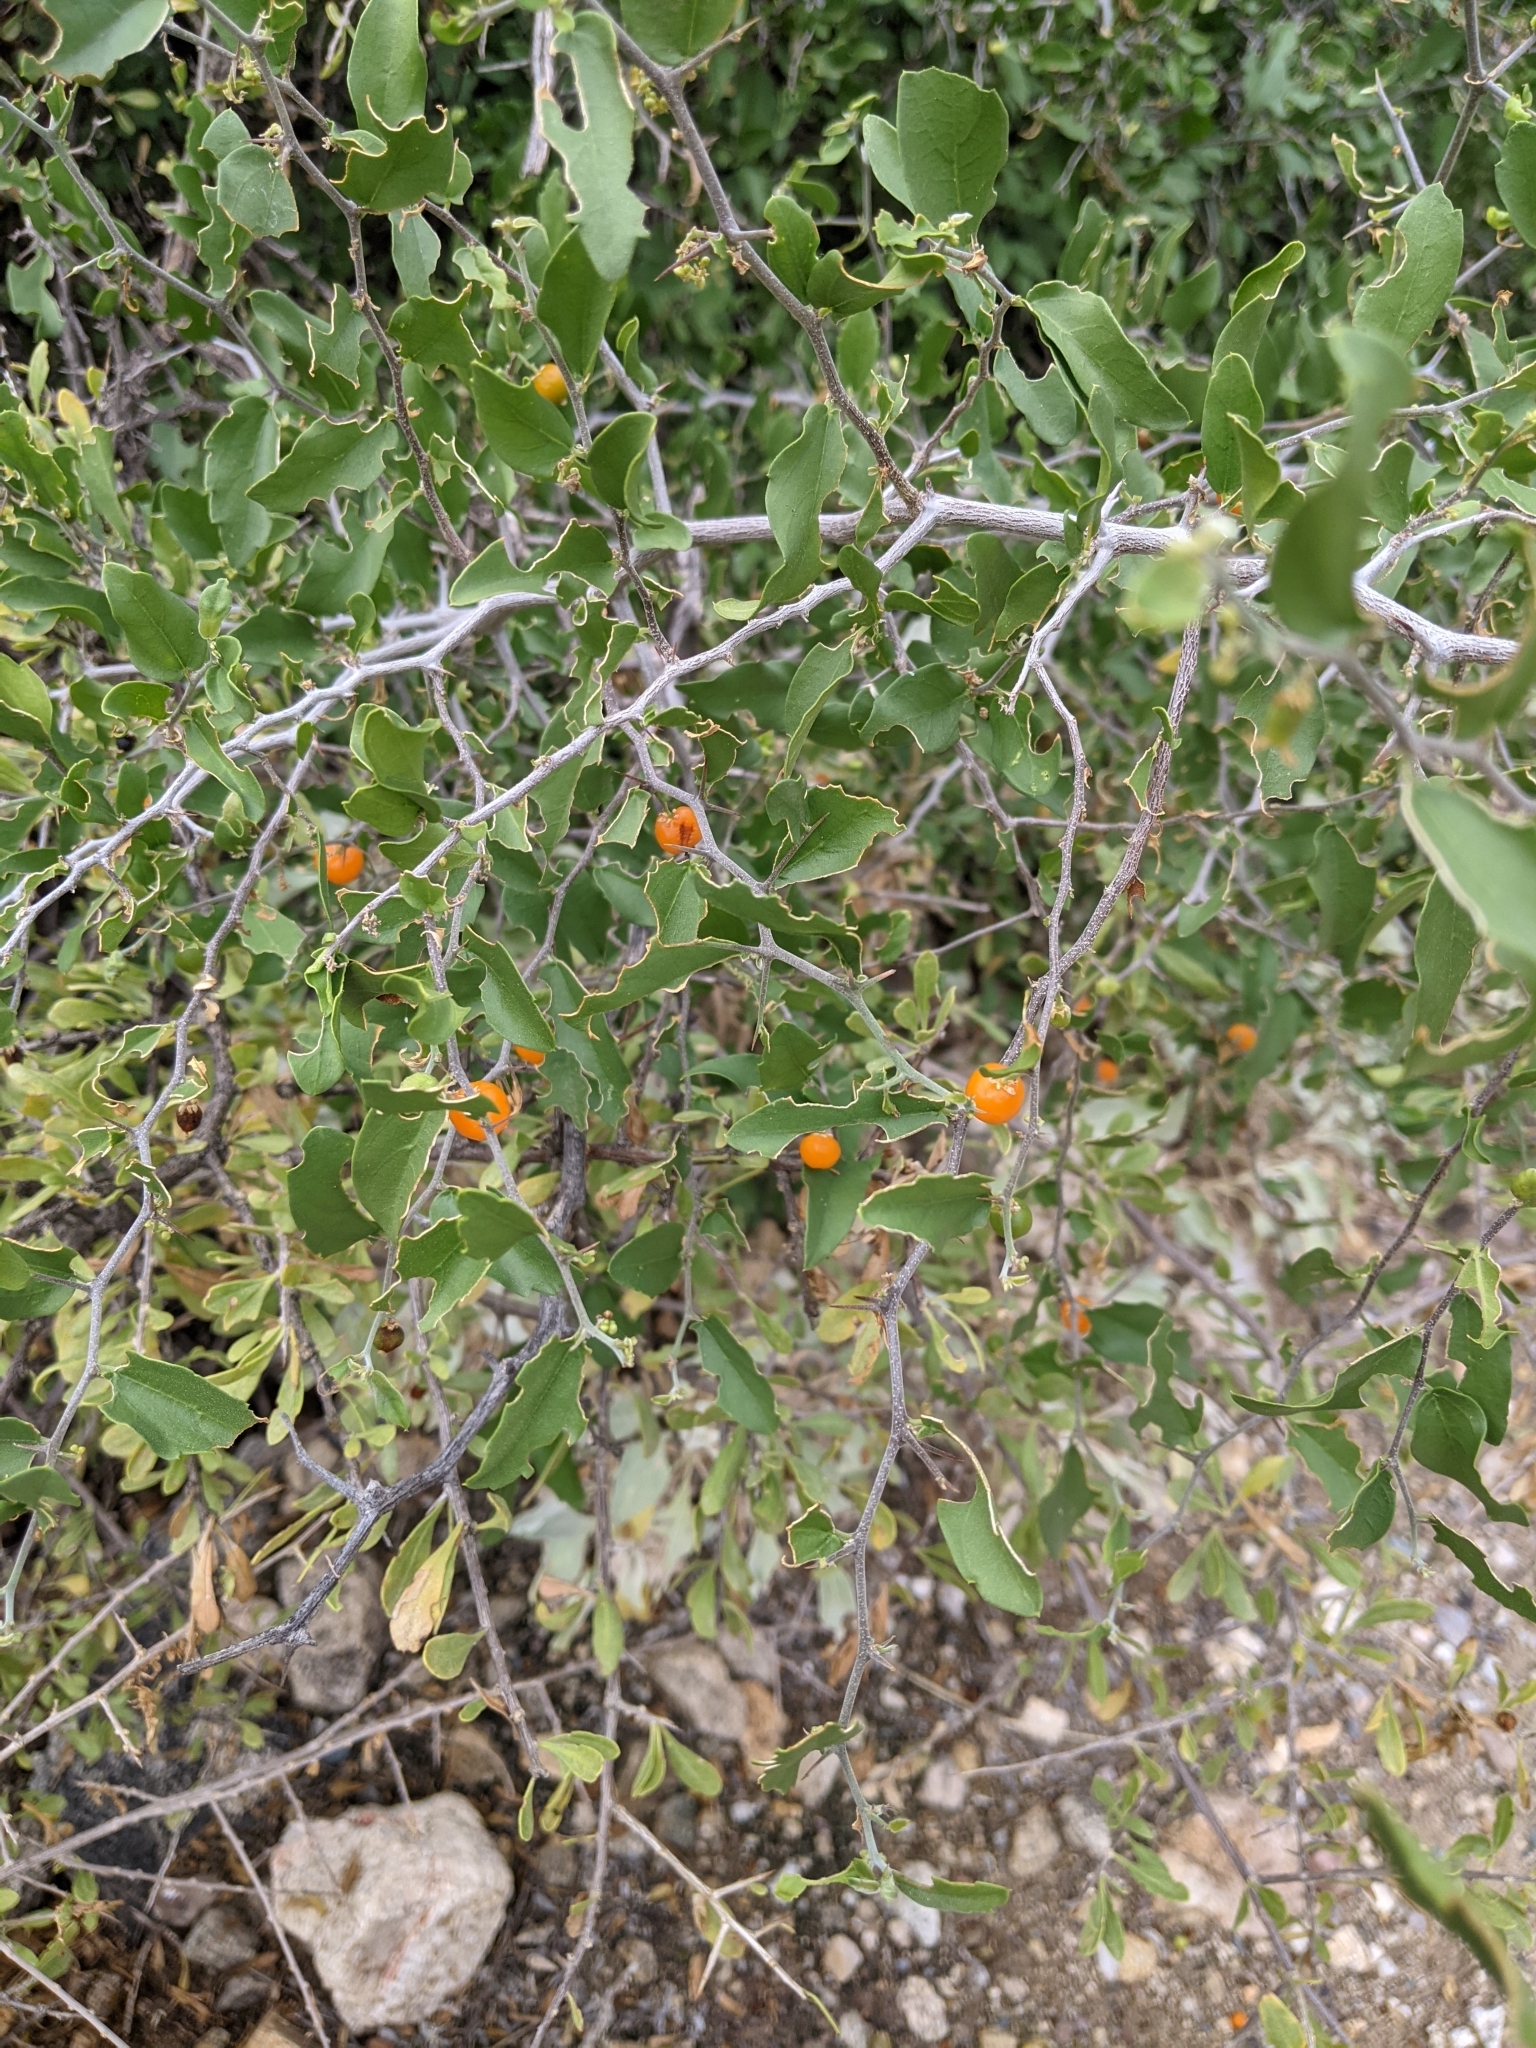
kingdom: Plantae
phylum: Tracheophyta
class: Magnoliopsida
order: Rosales
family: Cannabaceae
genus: Celtis
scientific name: Celtis pallida
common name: Desert hackberry
